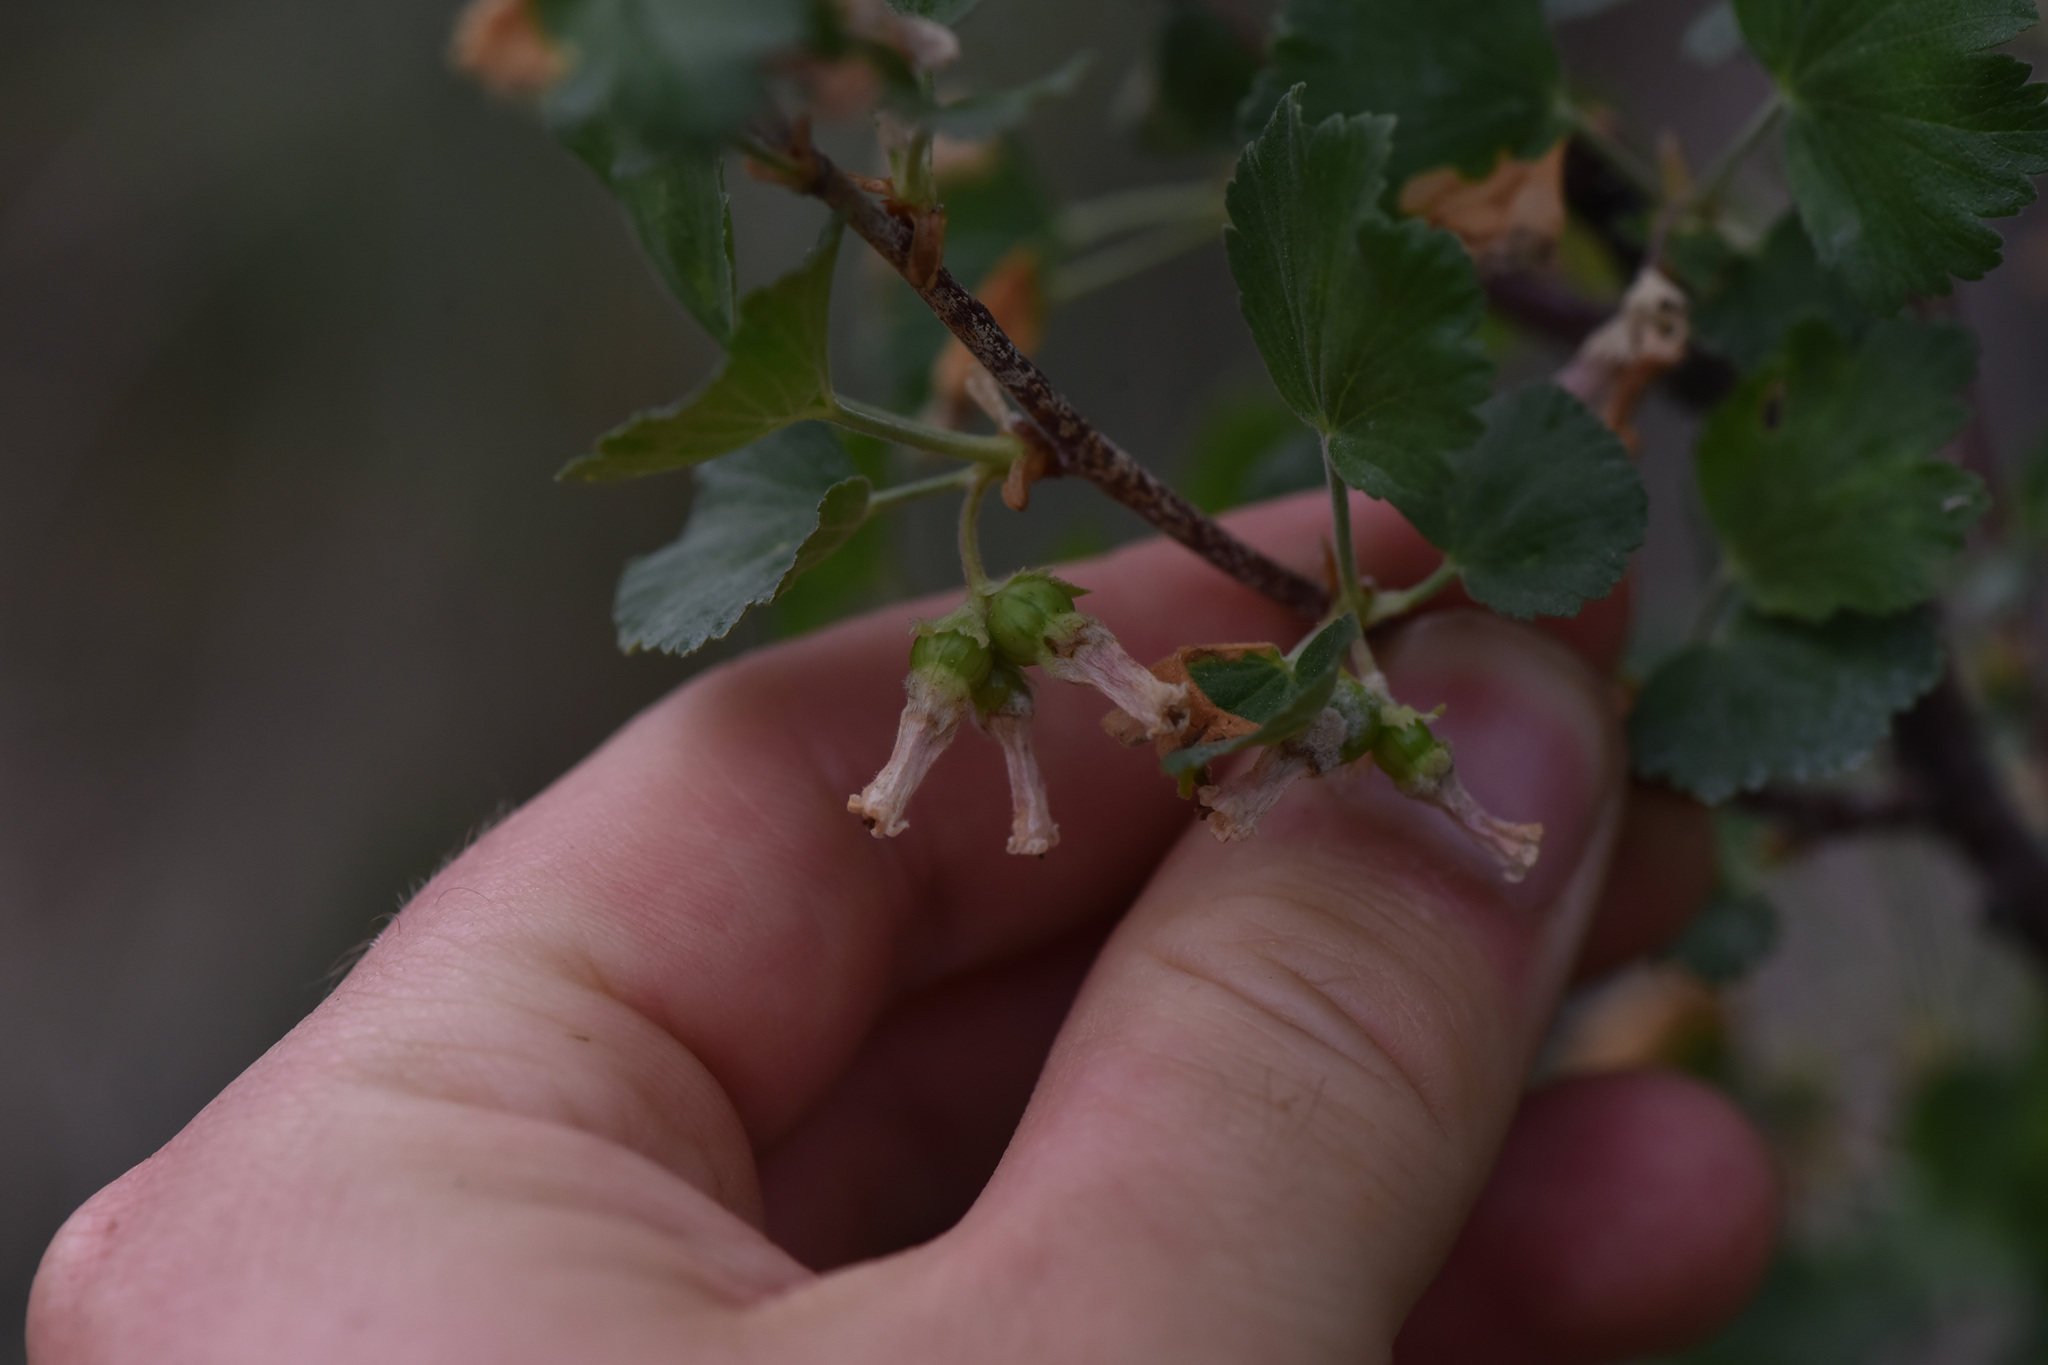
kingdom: Plantae
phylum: Tracheophyta
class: Magnoliopsida
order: Saxifragales
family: Grossulariaceae
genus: Ribes
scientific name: Ribes cereum
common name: Wax currant
